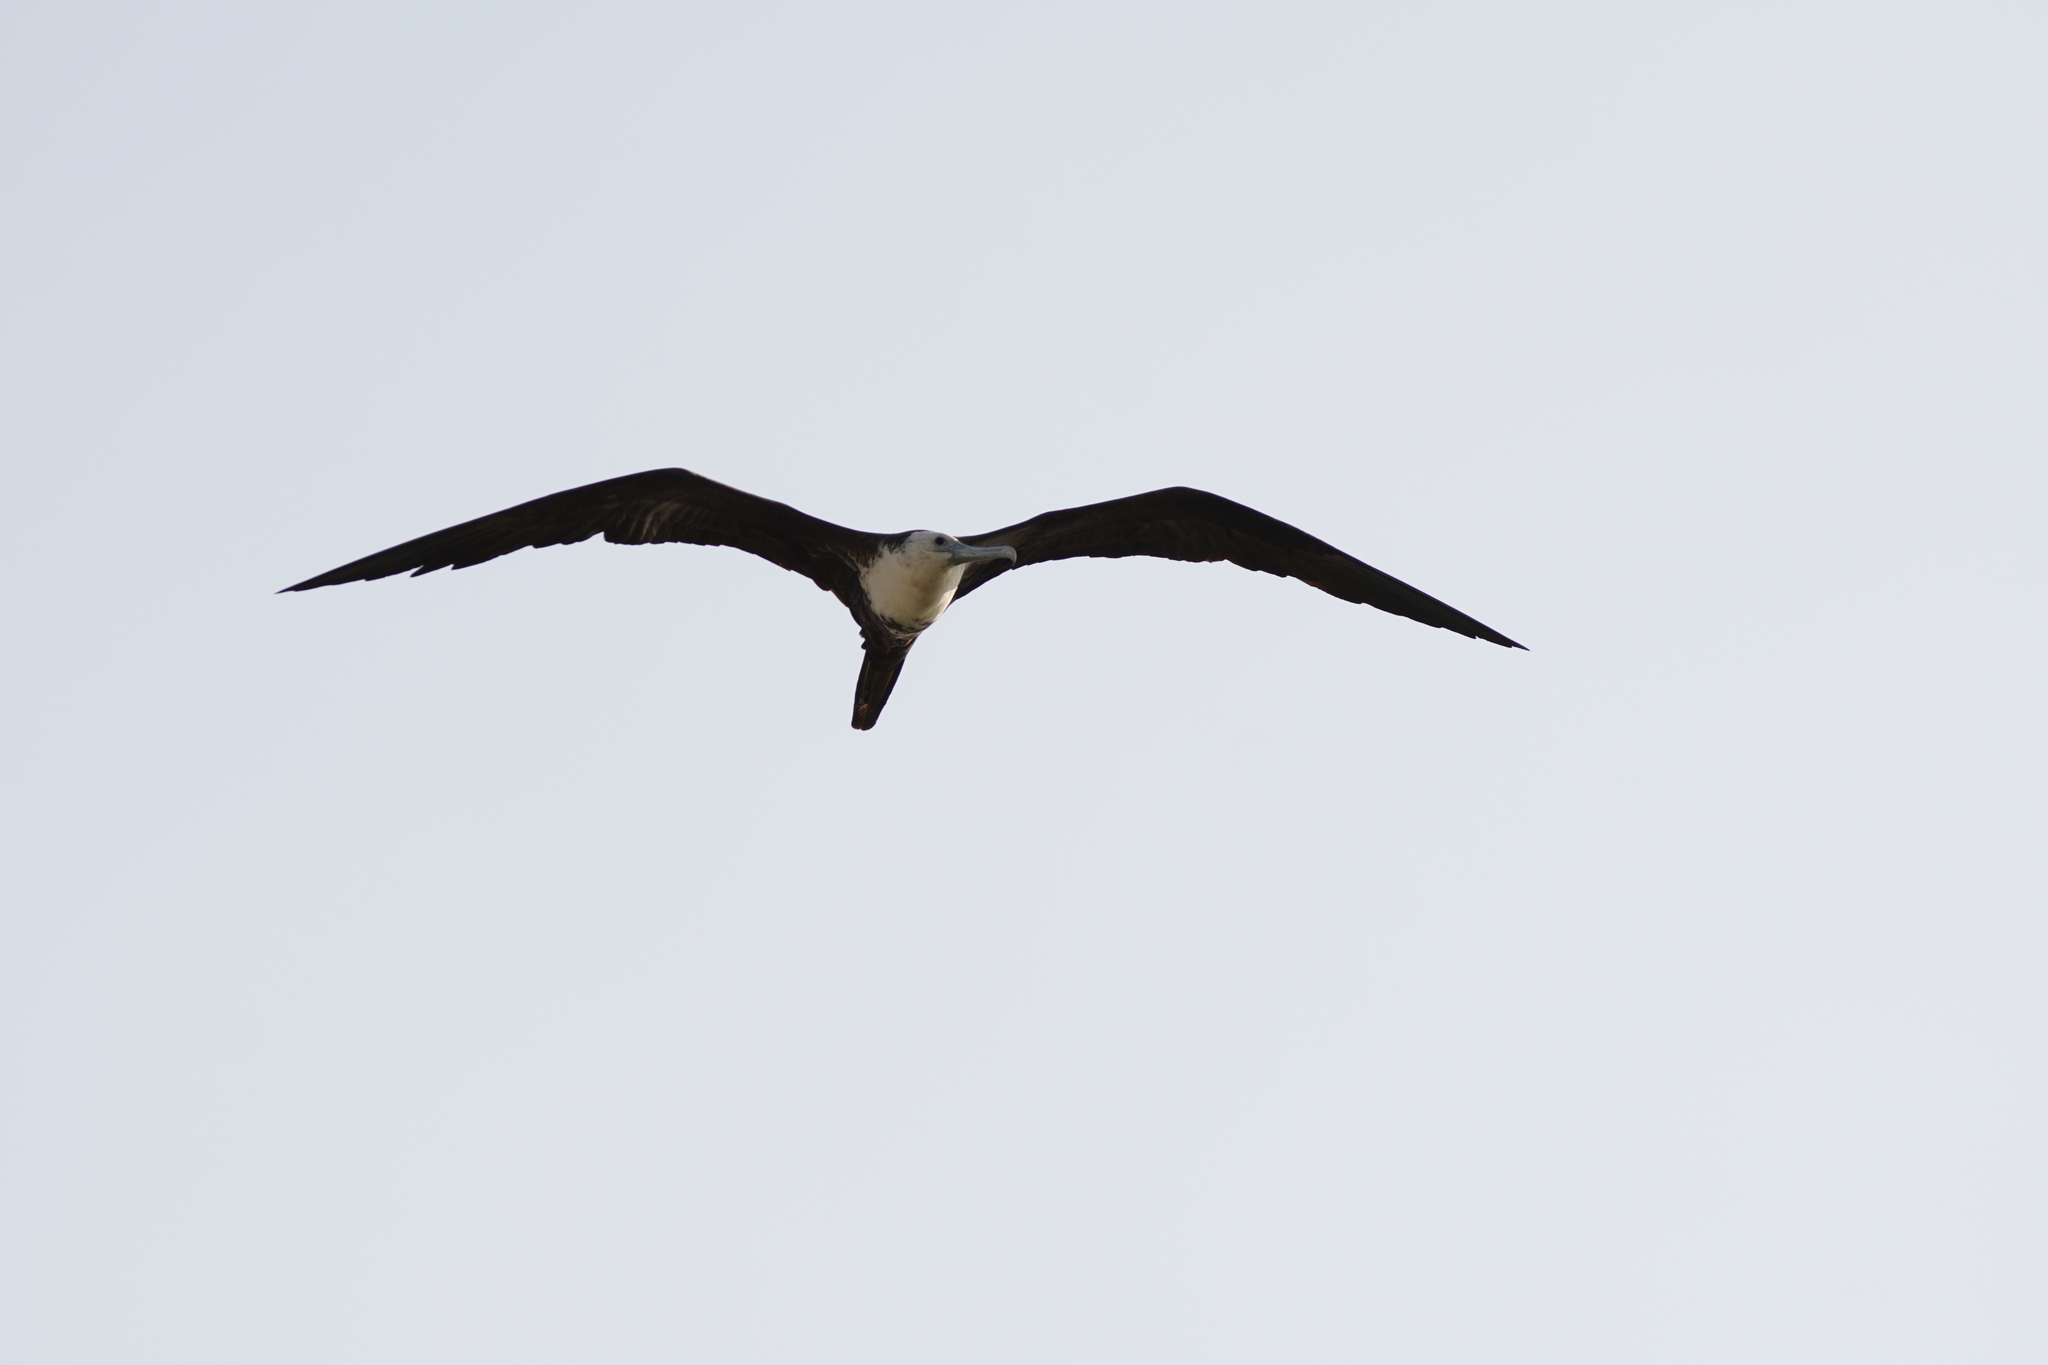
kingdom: Animalia
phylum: Chordata
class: Aves
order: Suliformes
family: Fregatidae
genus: Fregata
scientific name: Fregata magnificens
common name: Magnificent frigatebird
